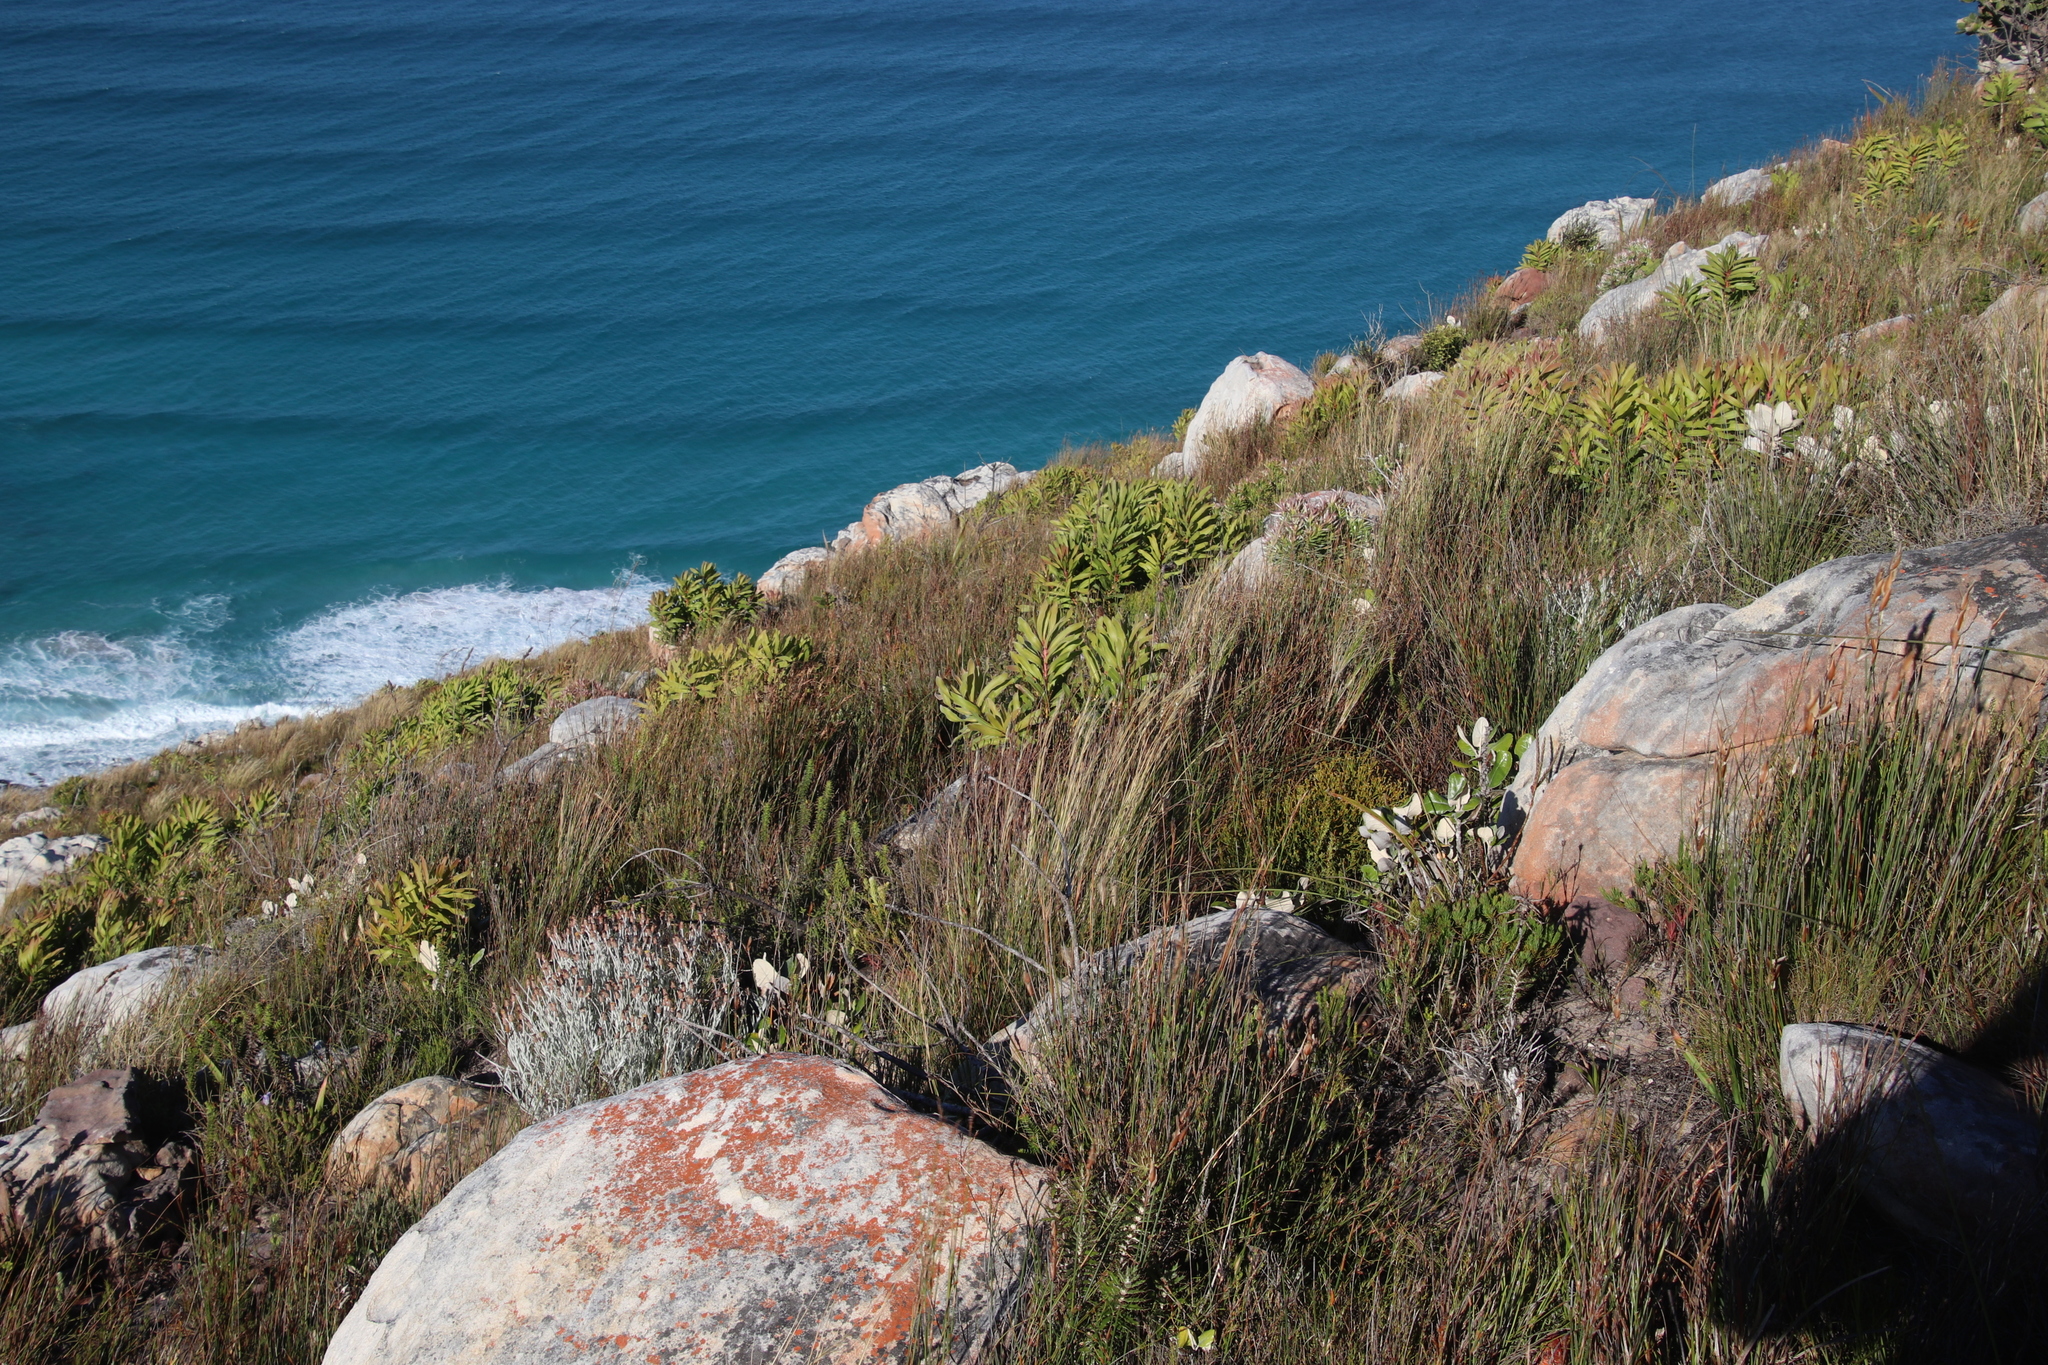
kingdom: Plantae
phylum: Tracheophyta
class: Magnoliopsida
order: Proteales
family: Proteaceae
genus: Protea
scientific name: Protea lepidocarpodendron
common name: Black-bearded protea
